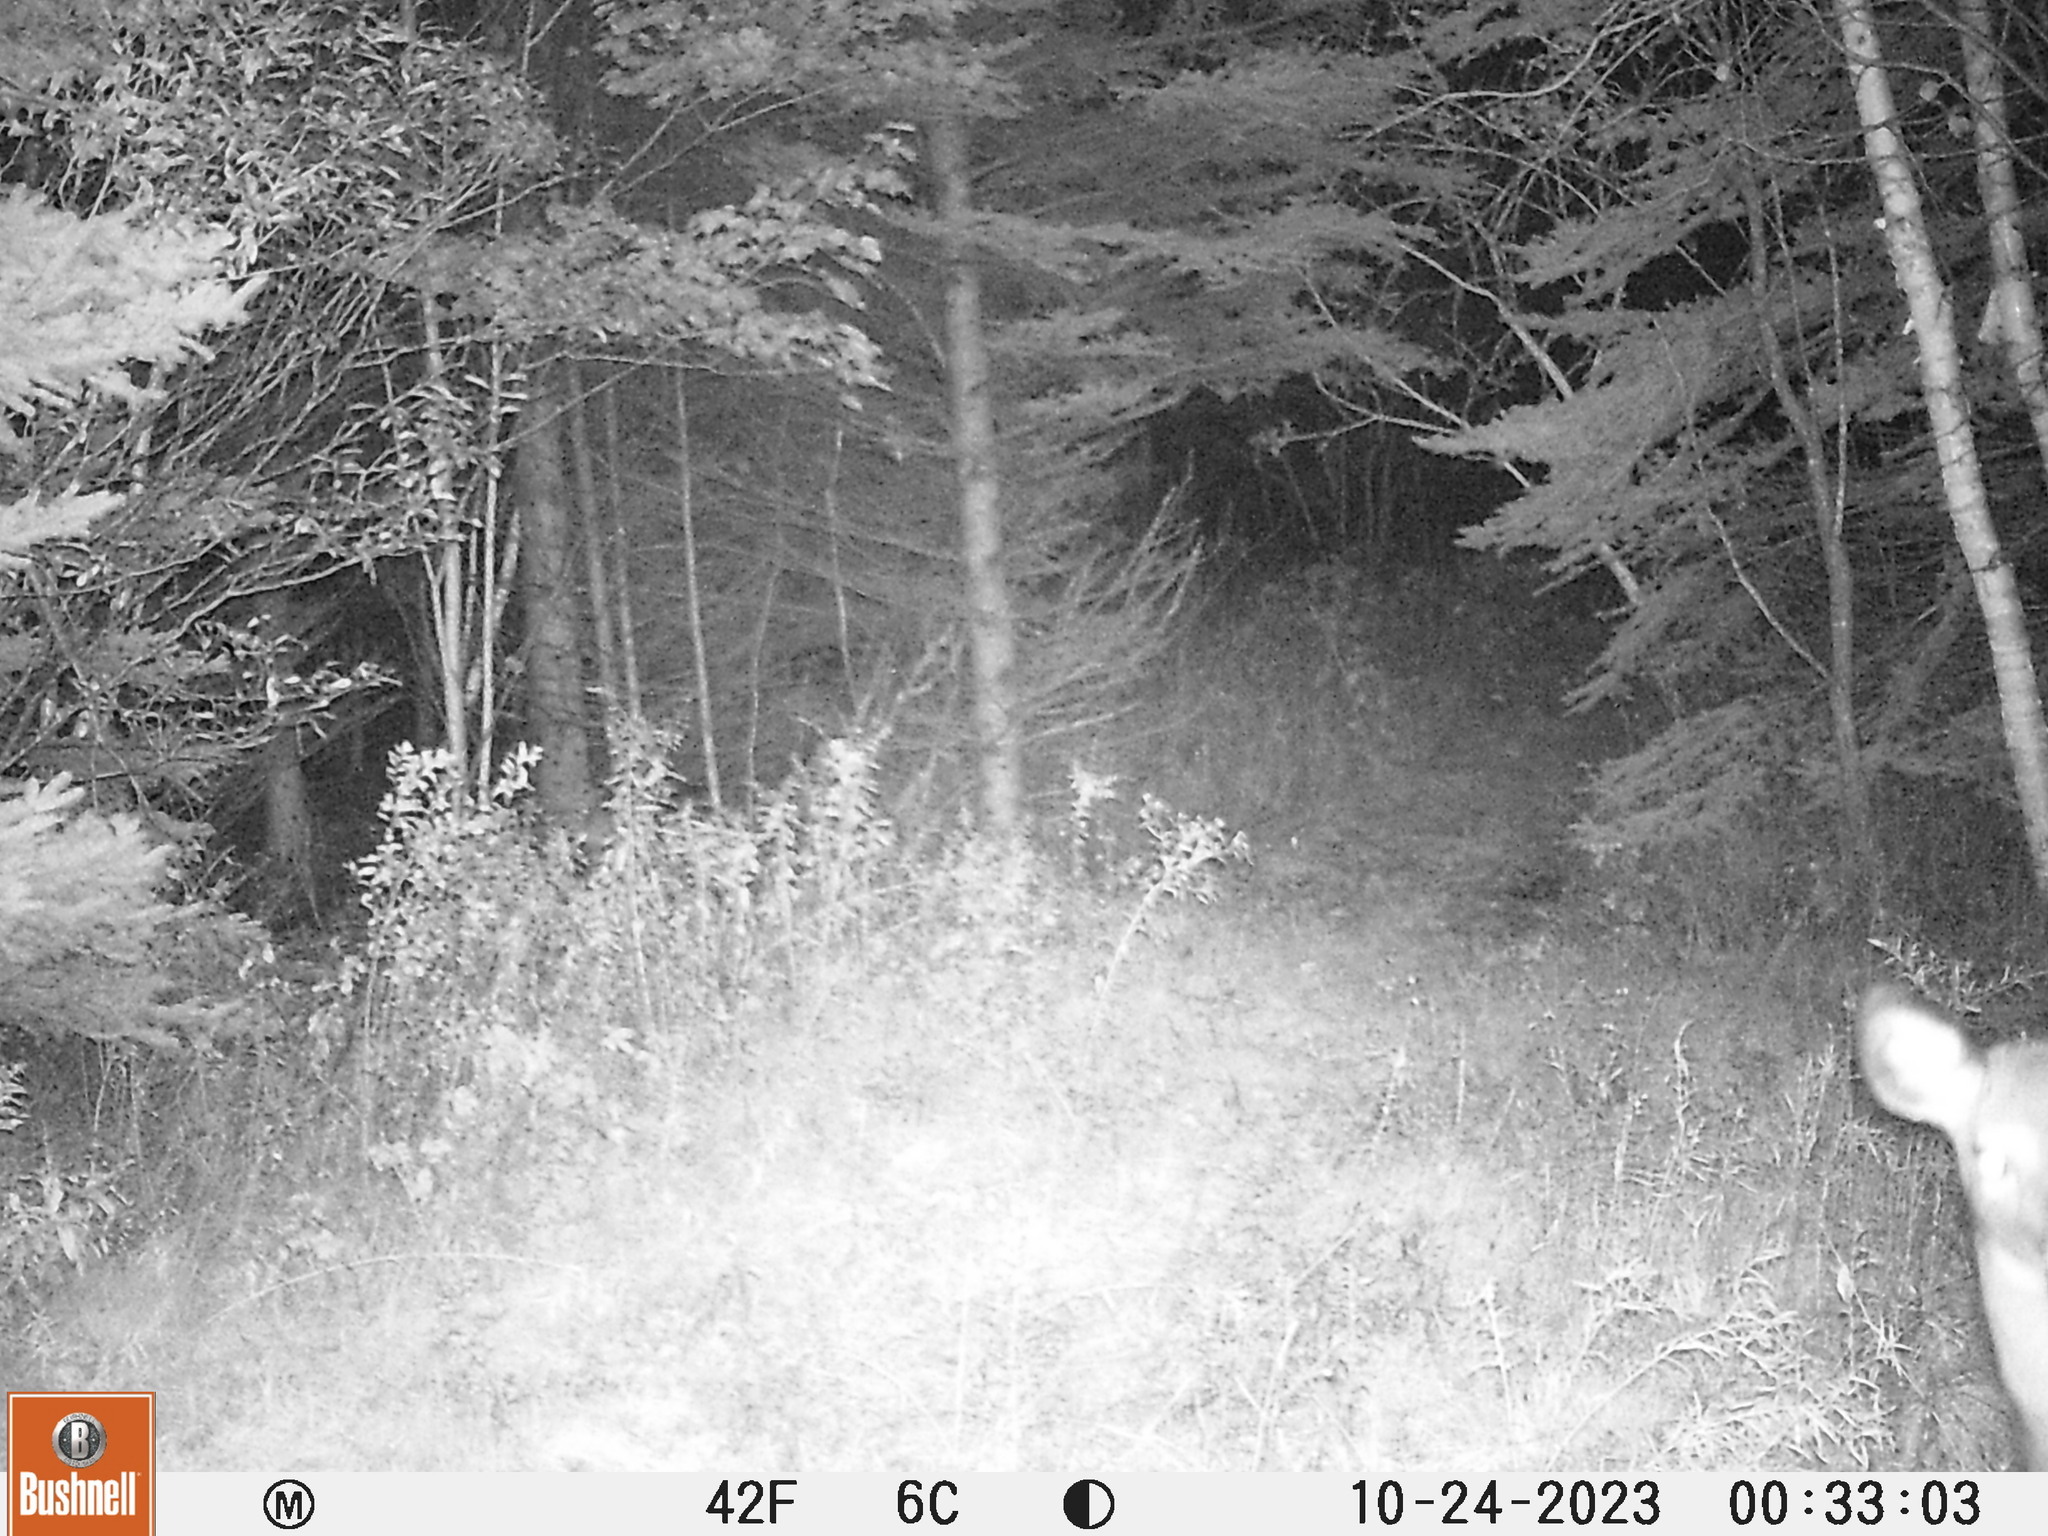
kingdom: Animalia
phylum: Chordata
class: Mammalia
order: Artiodactyla
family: Cervidae
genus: Odocoileus
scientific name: Odocoileus virginianus
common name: White-tailed deer
